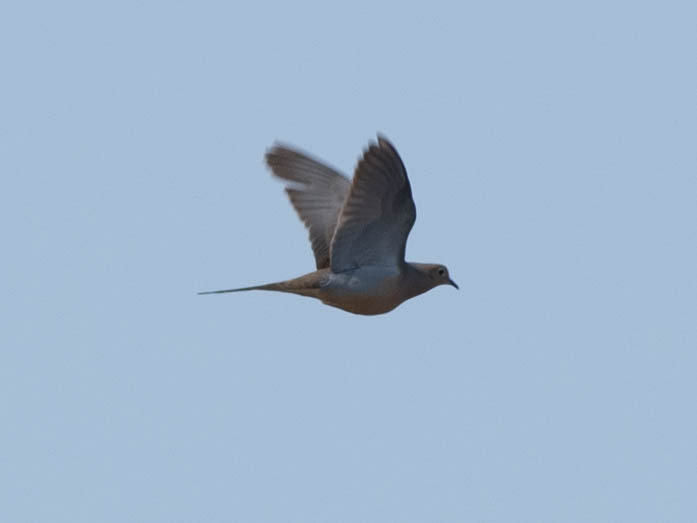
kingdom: Animalia
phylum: Chordata
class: Aves
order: Columbiformes
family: Columbidae
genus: Zenaida
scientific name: Zenaida macroura
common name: Mourning dove
